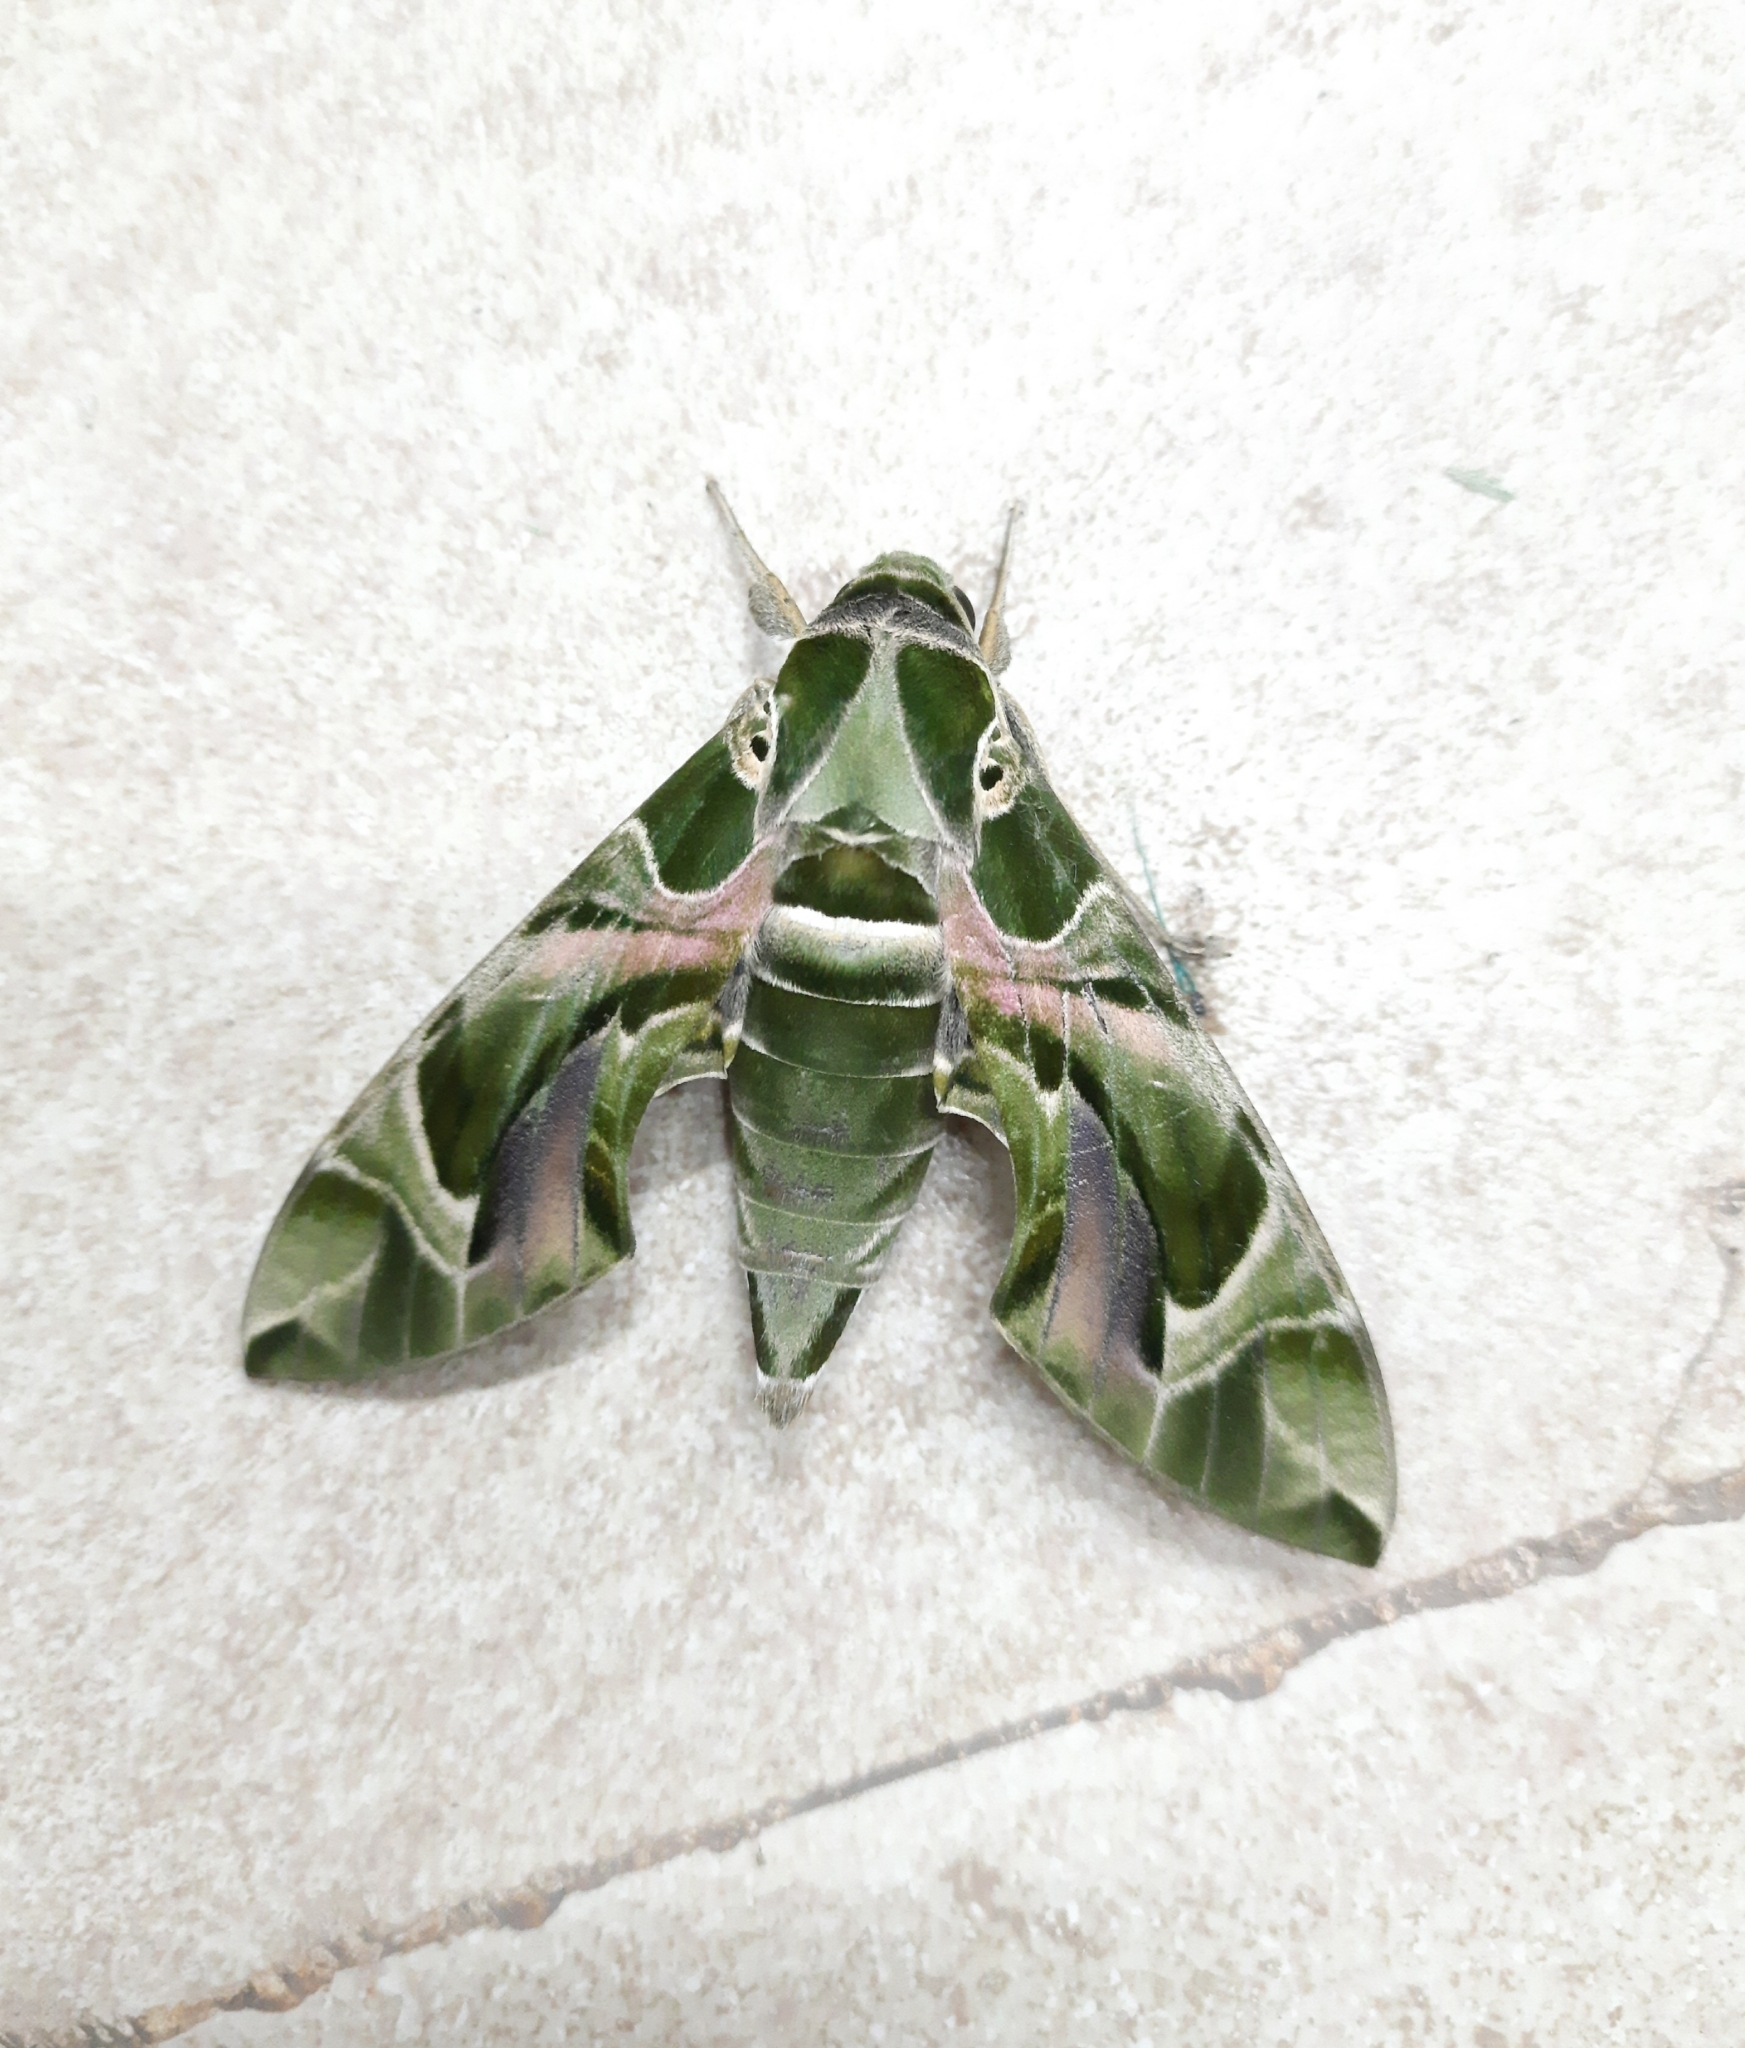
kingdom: Animalia
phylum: Arthropoda
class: Insecta
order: Lepidoptera
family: Sphingidae
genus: Daphnis
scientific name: Daphnis nerii
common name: Oleander hawk-moth
